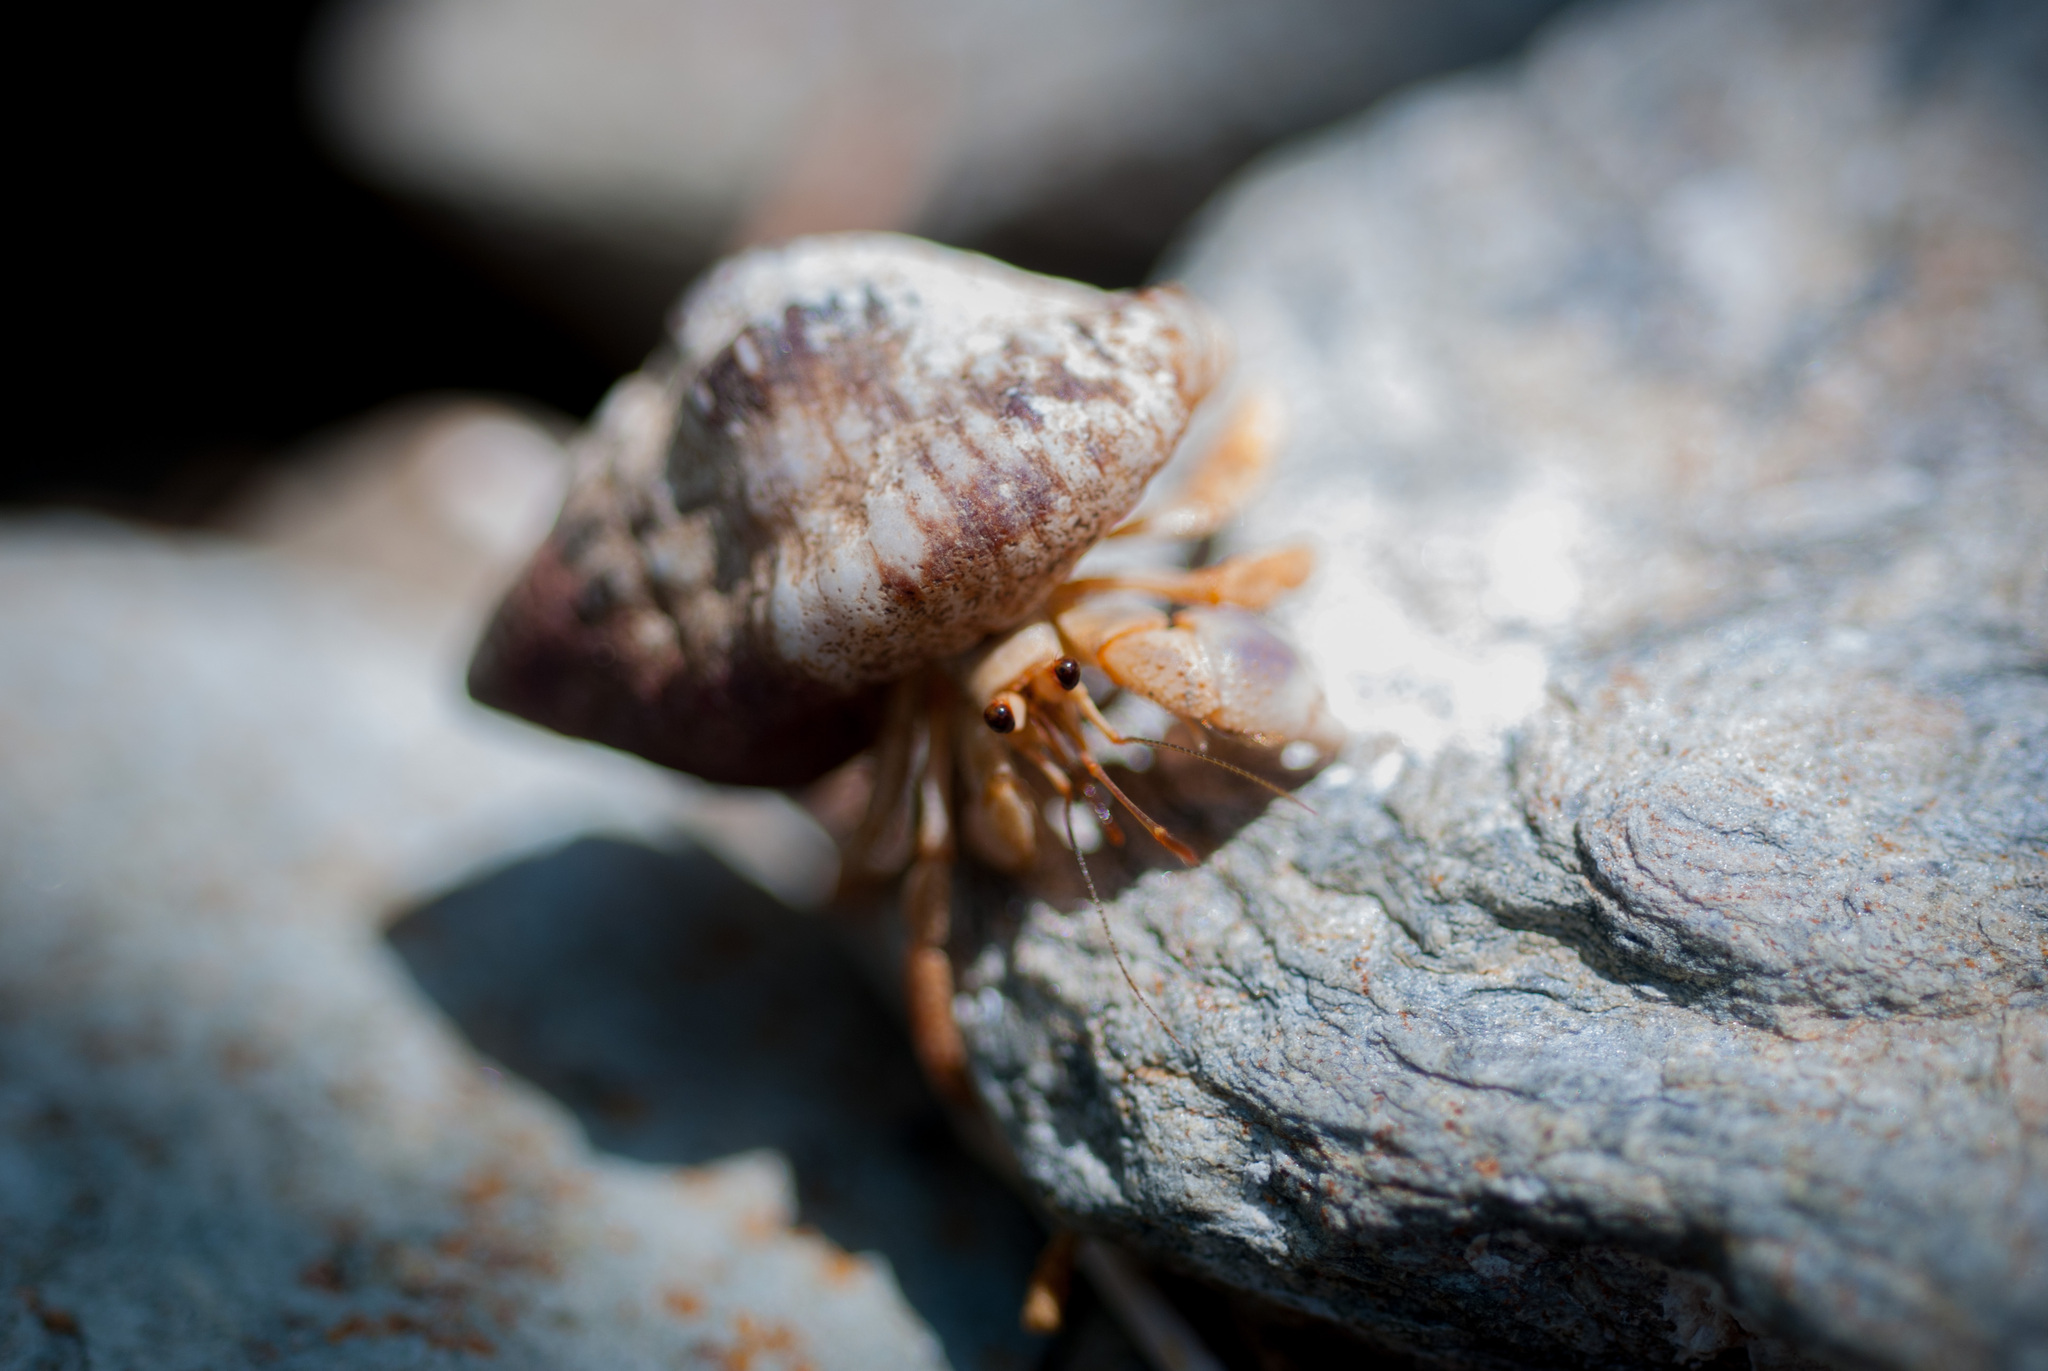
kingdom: Animalia
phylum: Arthropoda
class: Malacostraca
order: Decapoda
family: Coenobitidae
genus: Coenobita
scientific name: Coenobita clypeatus
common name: Caribbean hermit crab
